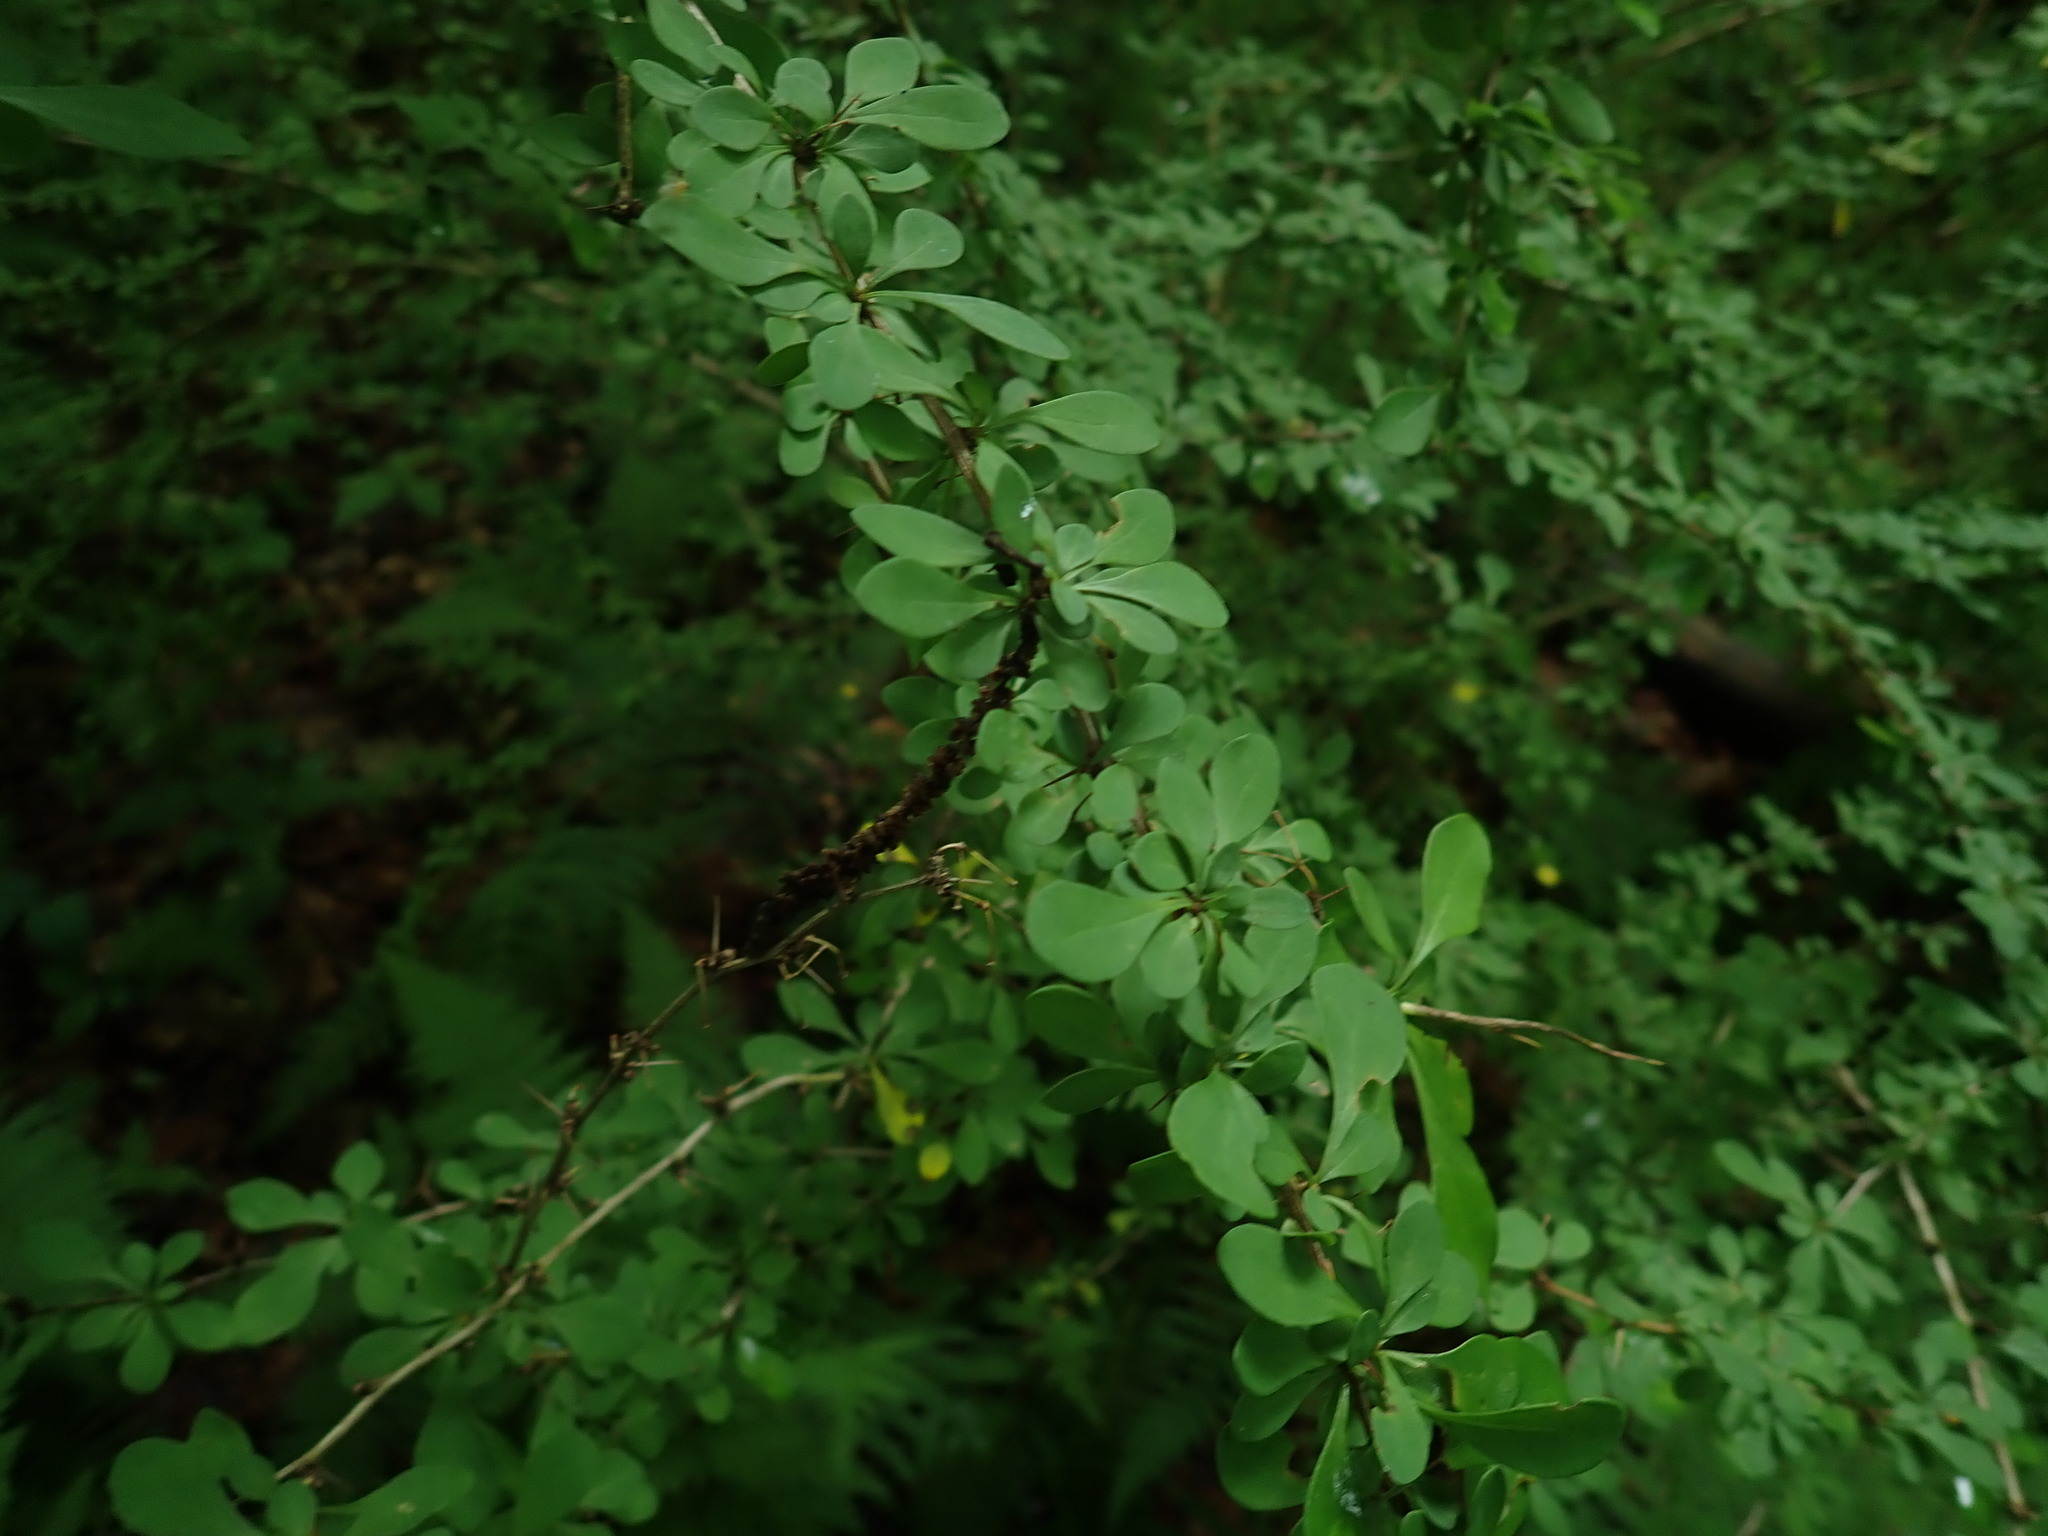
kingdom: Plantae
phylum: Tracheophyta
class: Magnoliopsida
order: Ranunculales
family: Berberidaceae
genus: Berberis
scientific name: Berberis thunbergii
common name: Japanese barberry
